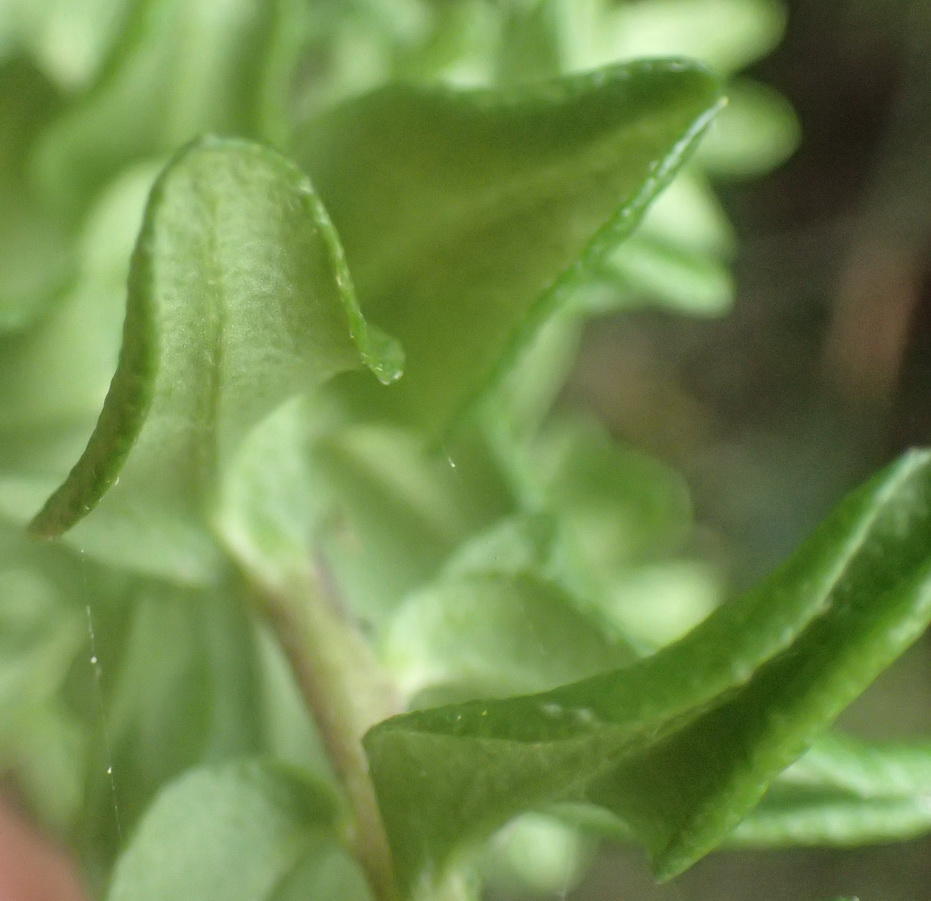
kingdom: Plantae
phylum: Tracheophyta
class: Magnoliopsida
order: Asterales
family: Asteraceae
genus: Felicia
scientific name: Felicia aethiopica
